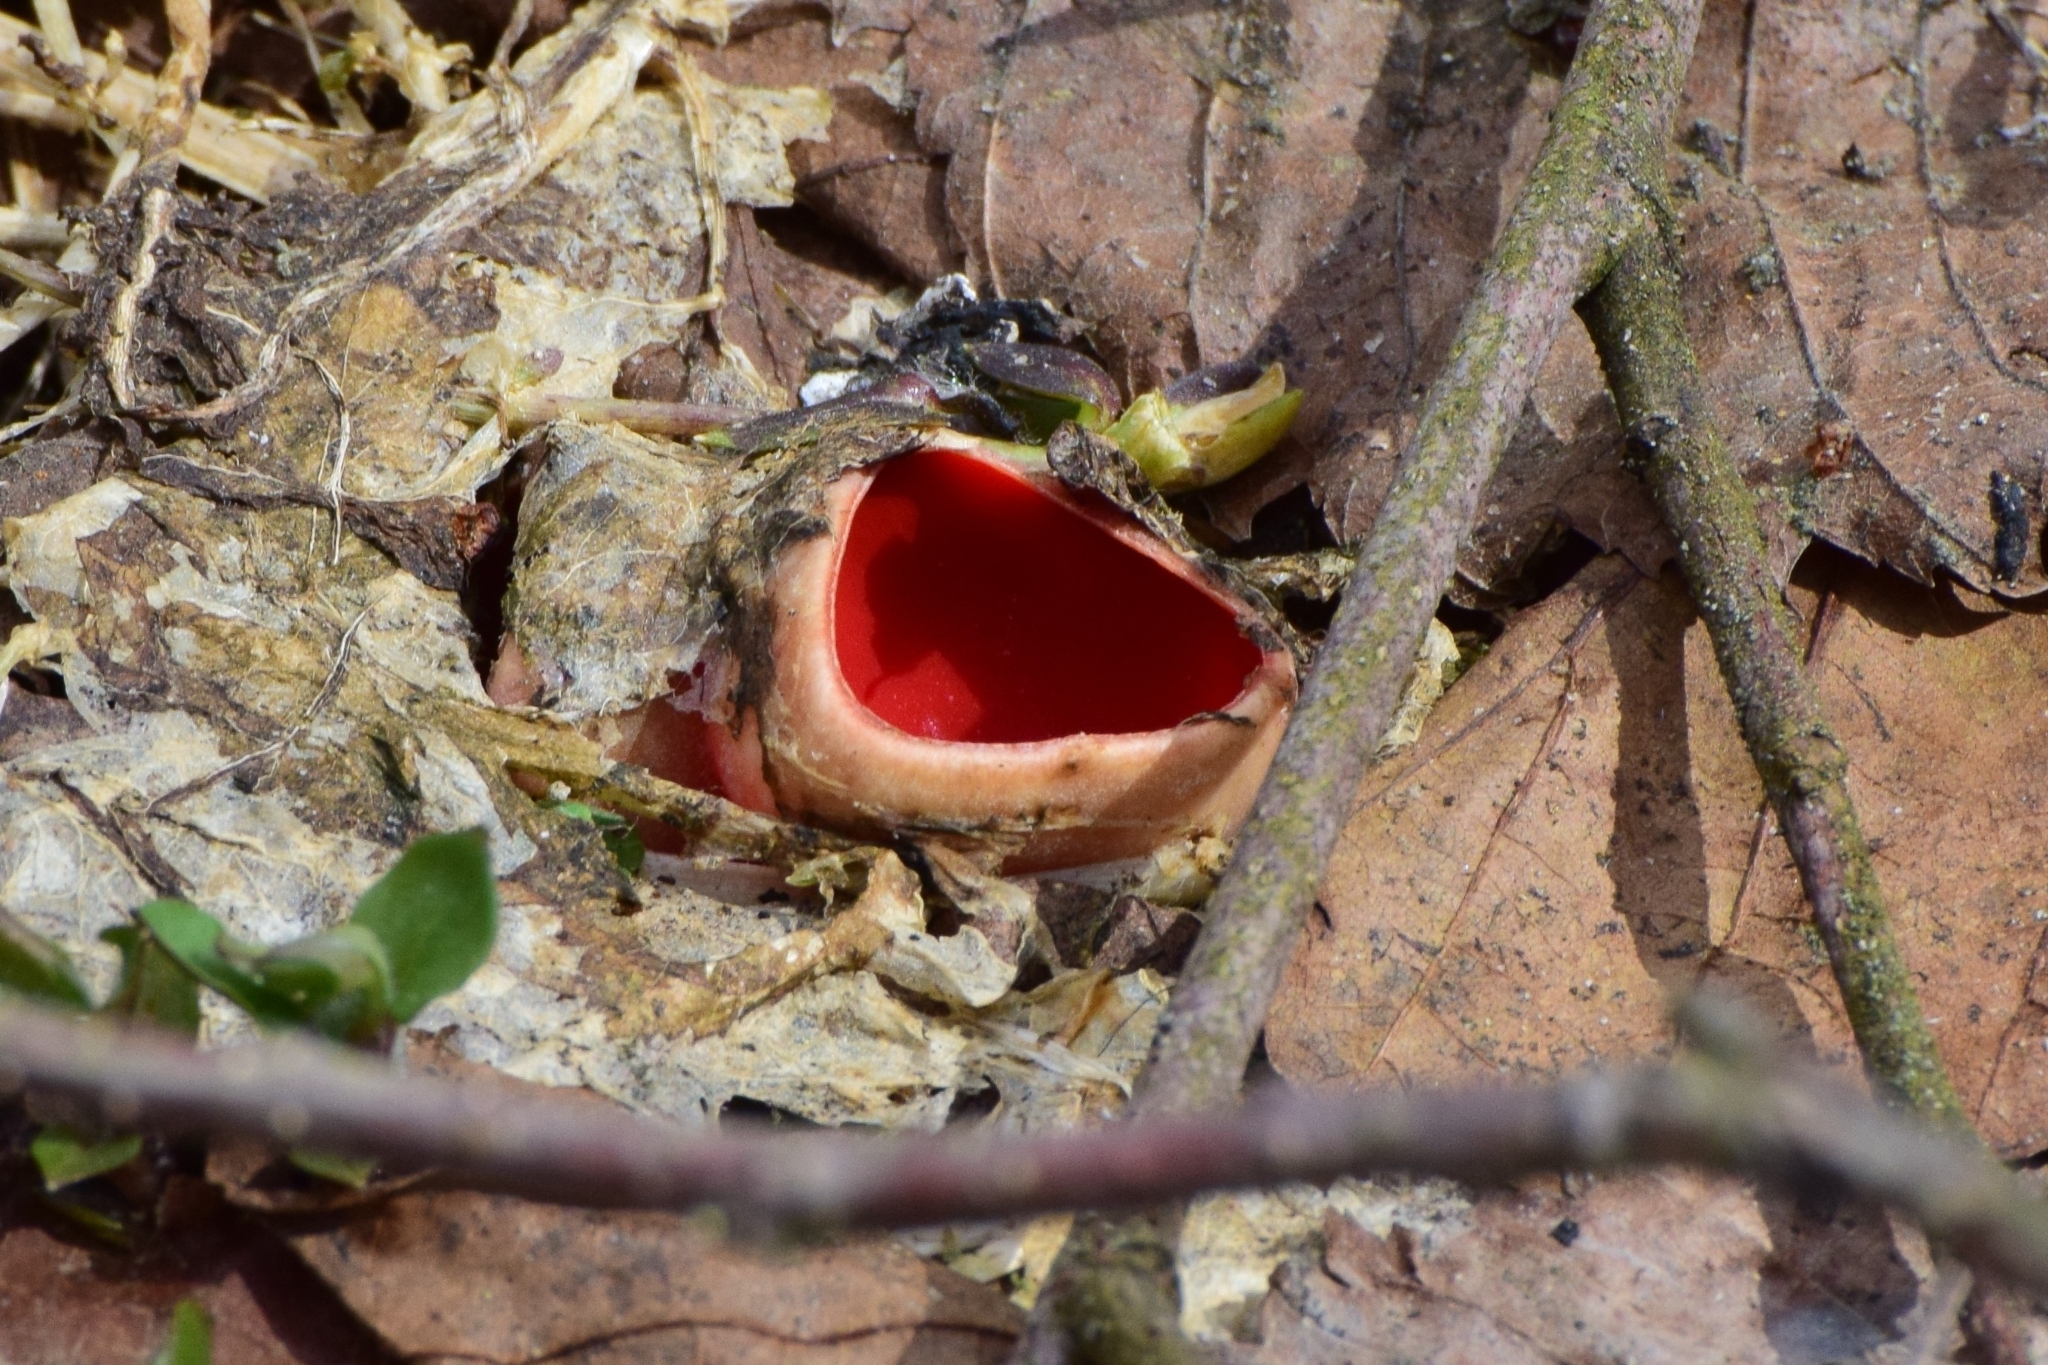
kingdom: Fungi
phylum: Ascomycota
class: Pezizomycetes
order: Pezizales
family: Sarcoscyphaceae
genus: Sarcoscypha
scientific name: Sarcoscypha
